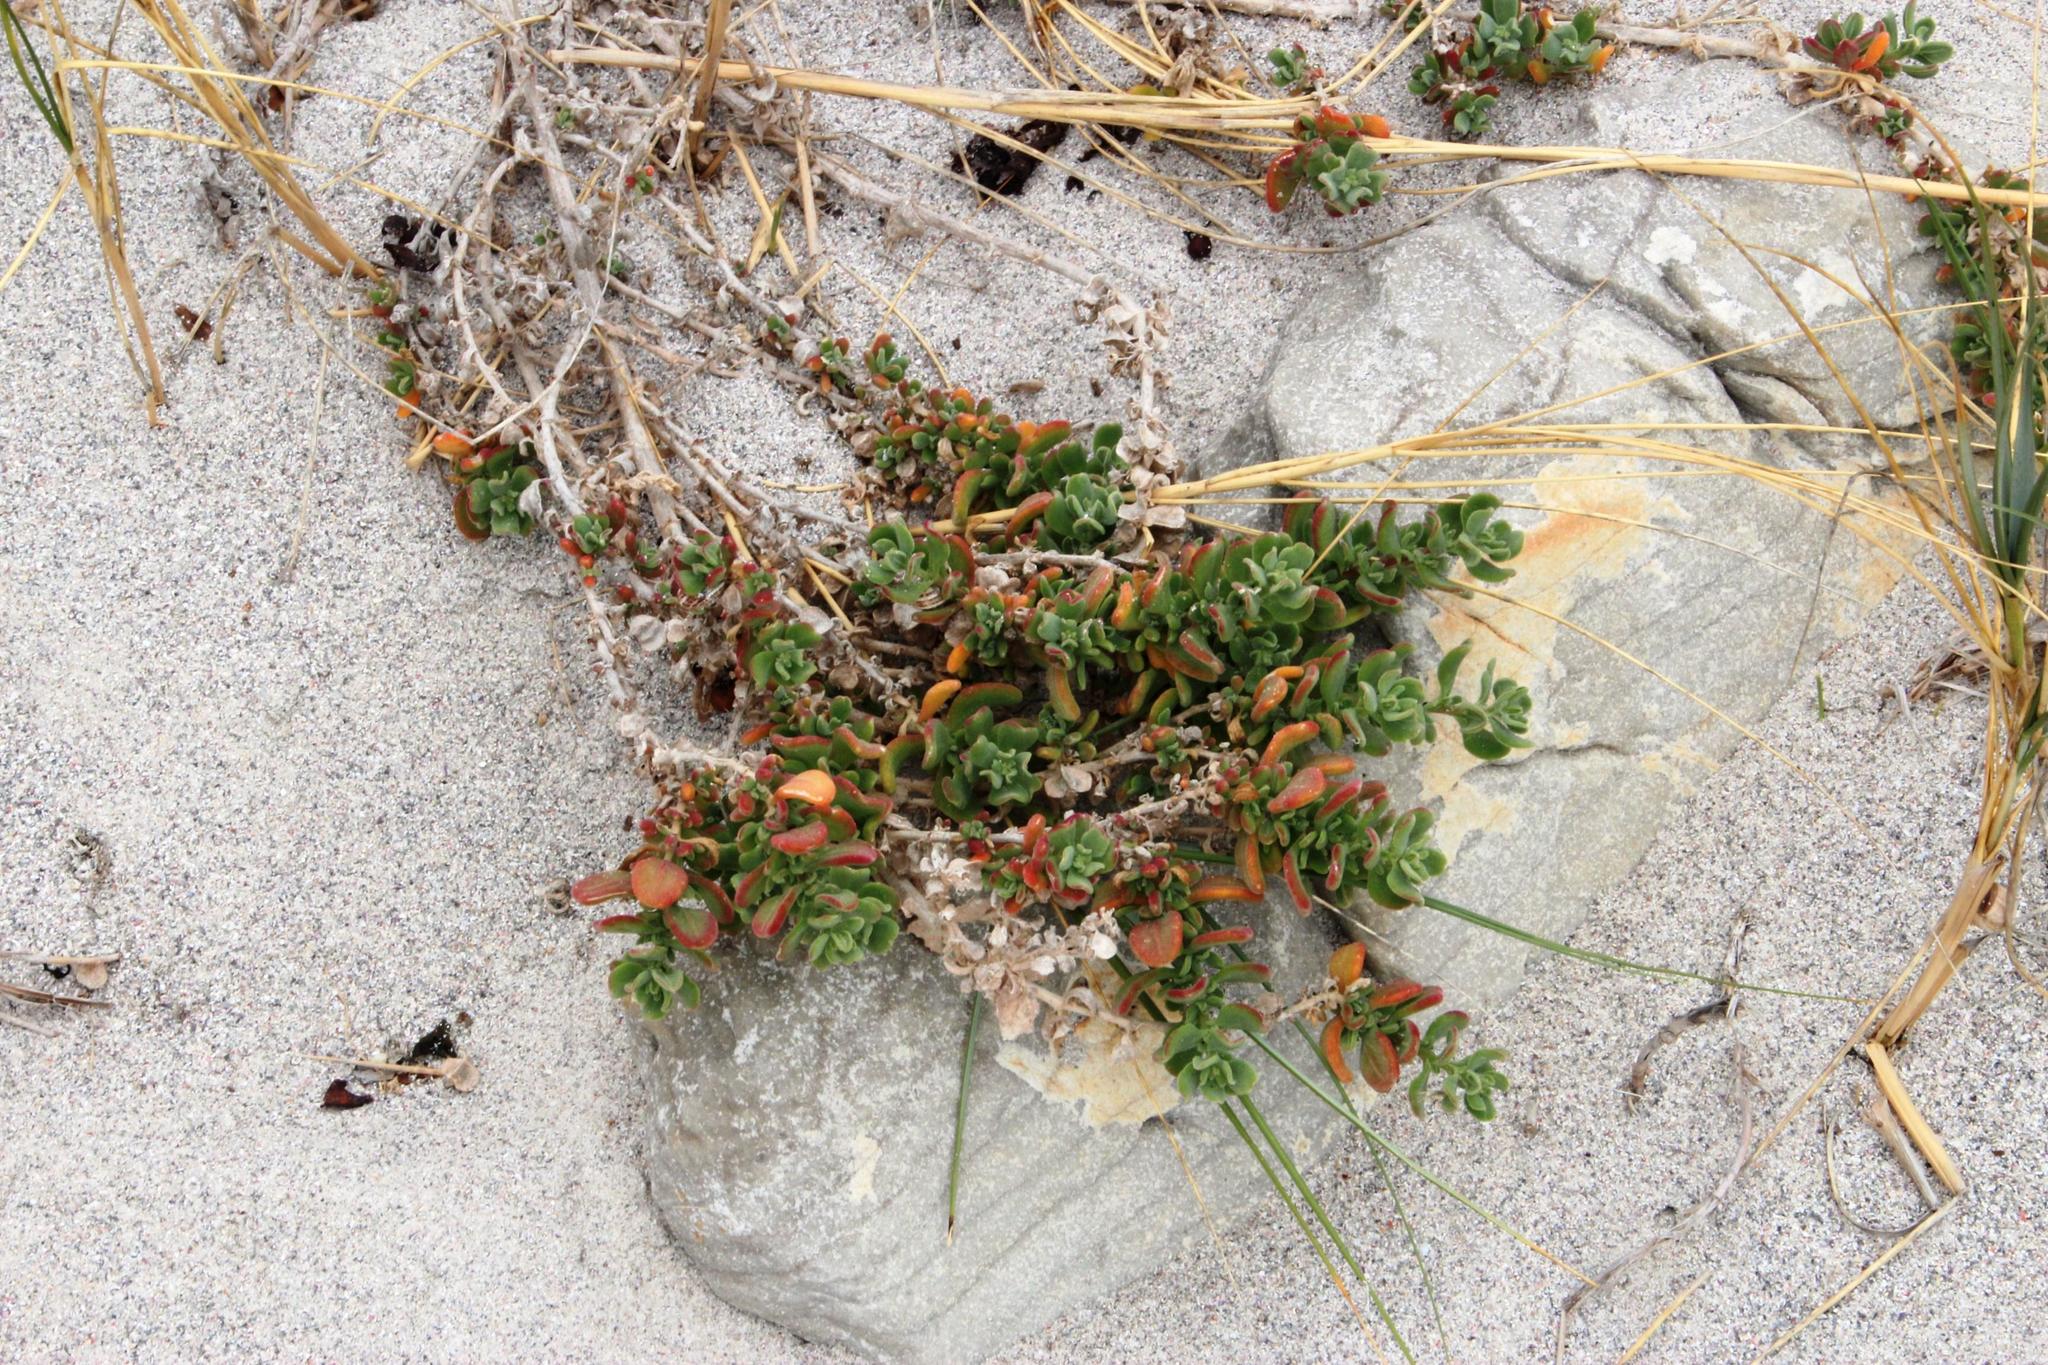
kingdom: Plantae
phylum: Tracheophyta
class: Magnoliopsida
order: Caryophyllales
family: Aizoaceae
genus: Tetragonia
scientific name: Tetragonia fruticosa
